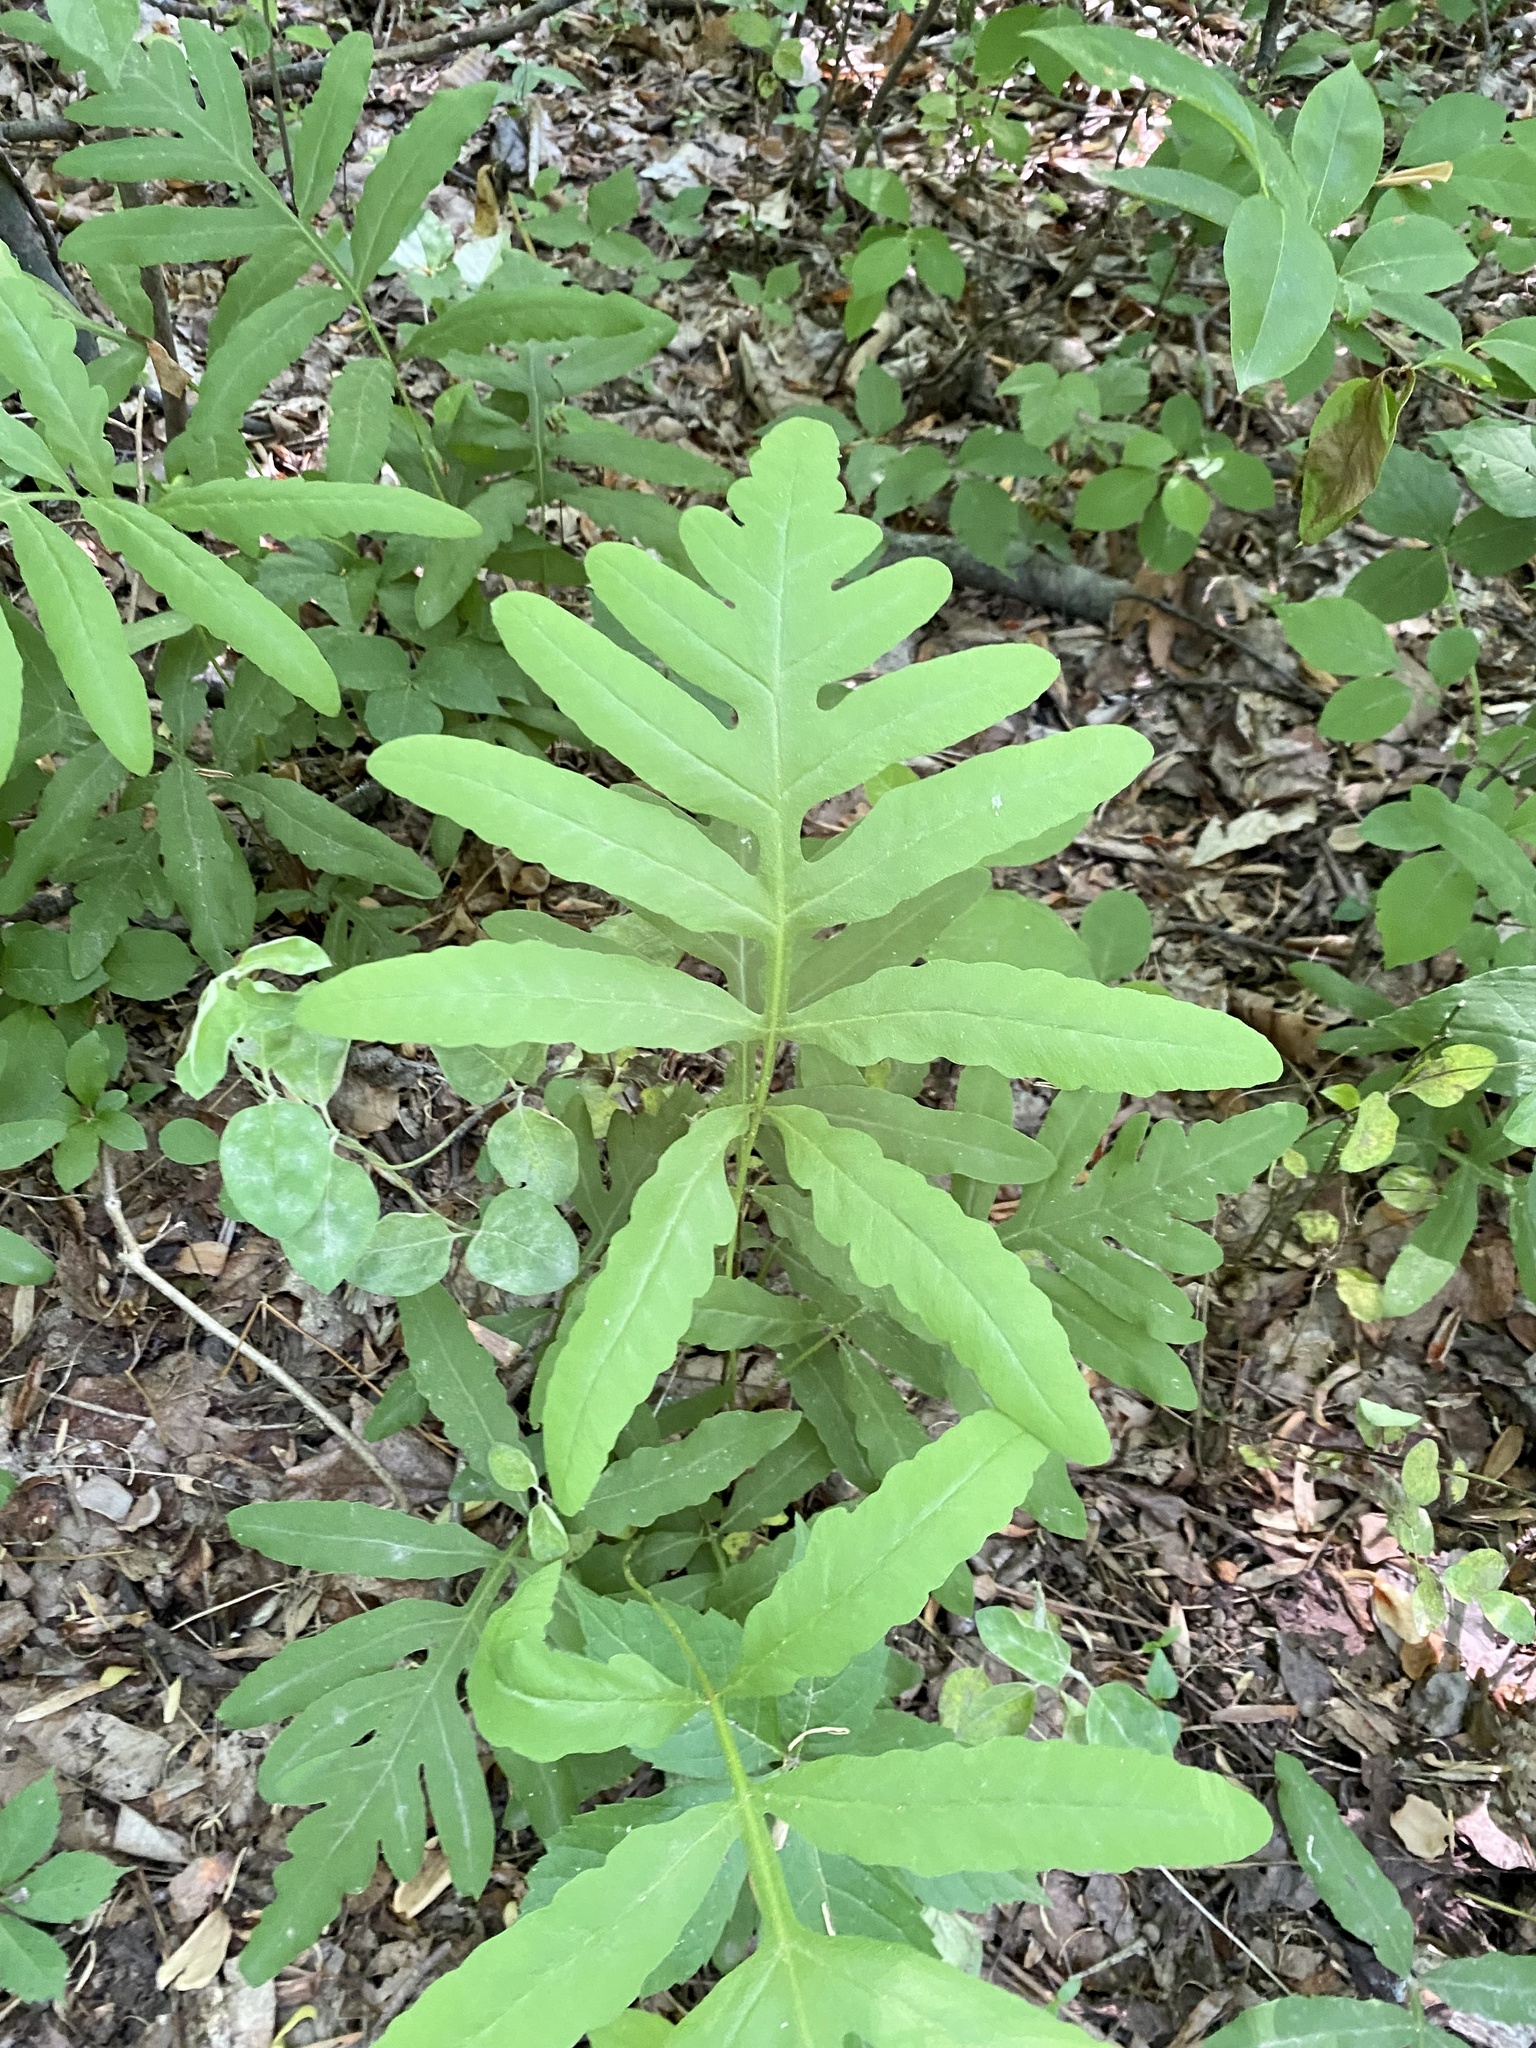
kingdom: Plantae
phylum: Tracheophyta
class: Polypodiopsida
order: Polypodiales
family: Onocleaceae
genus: Onoclea
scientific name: Onoclea sensibilis
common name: Sensitive fern
